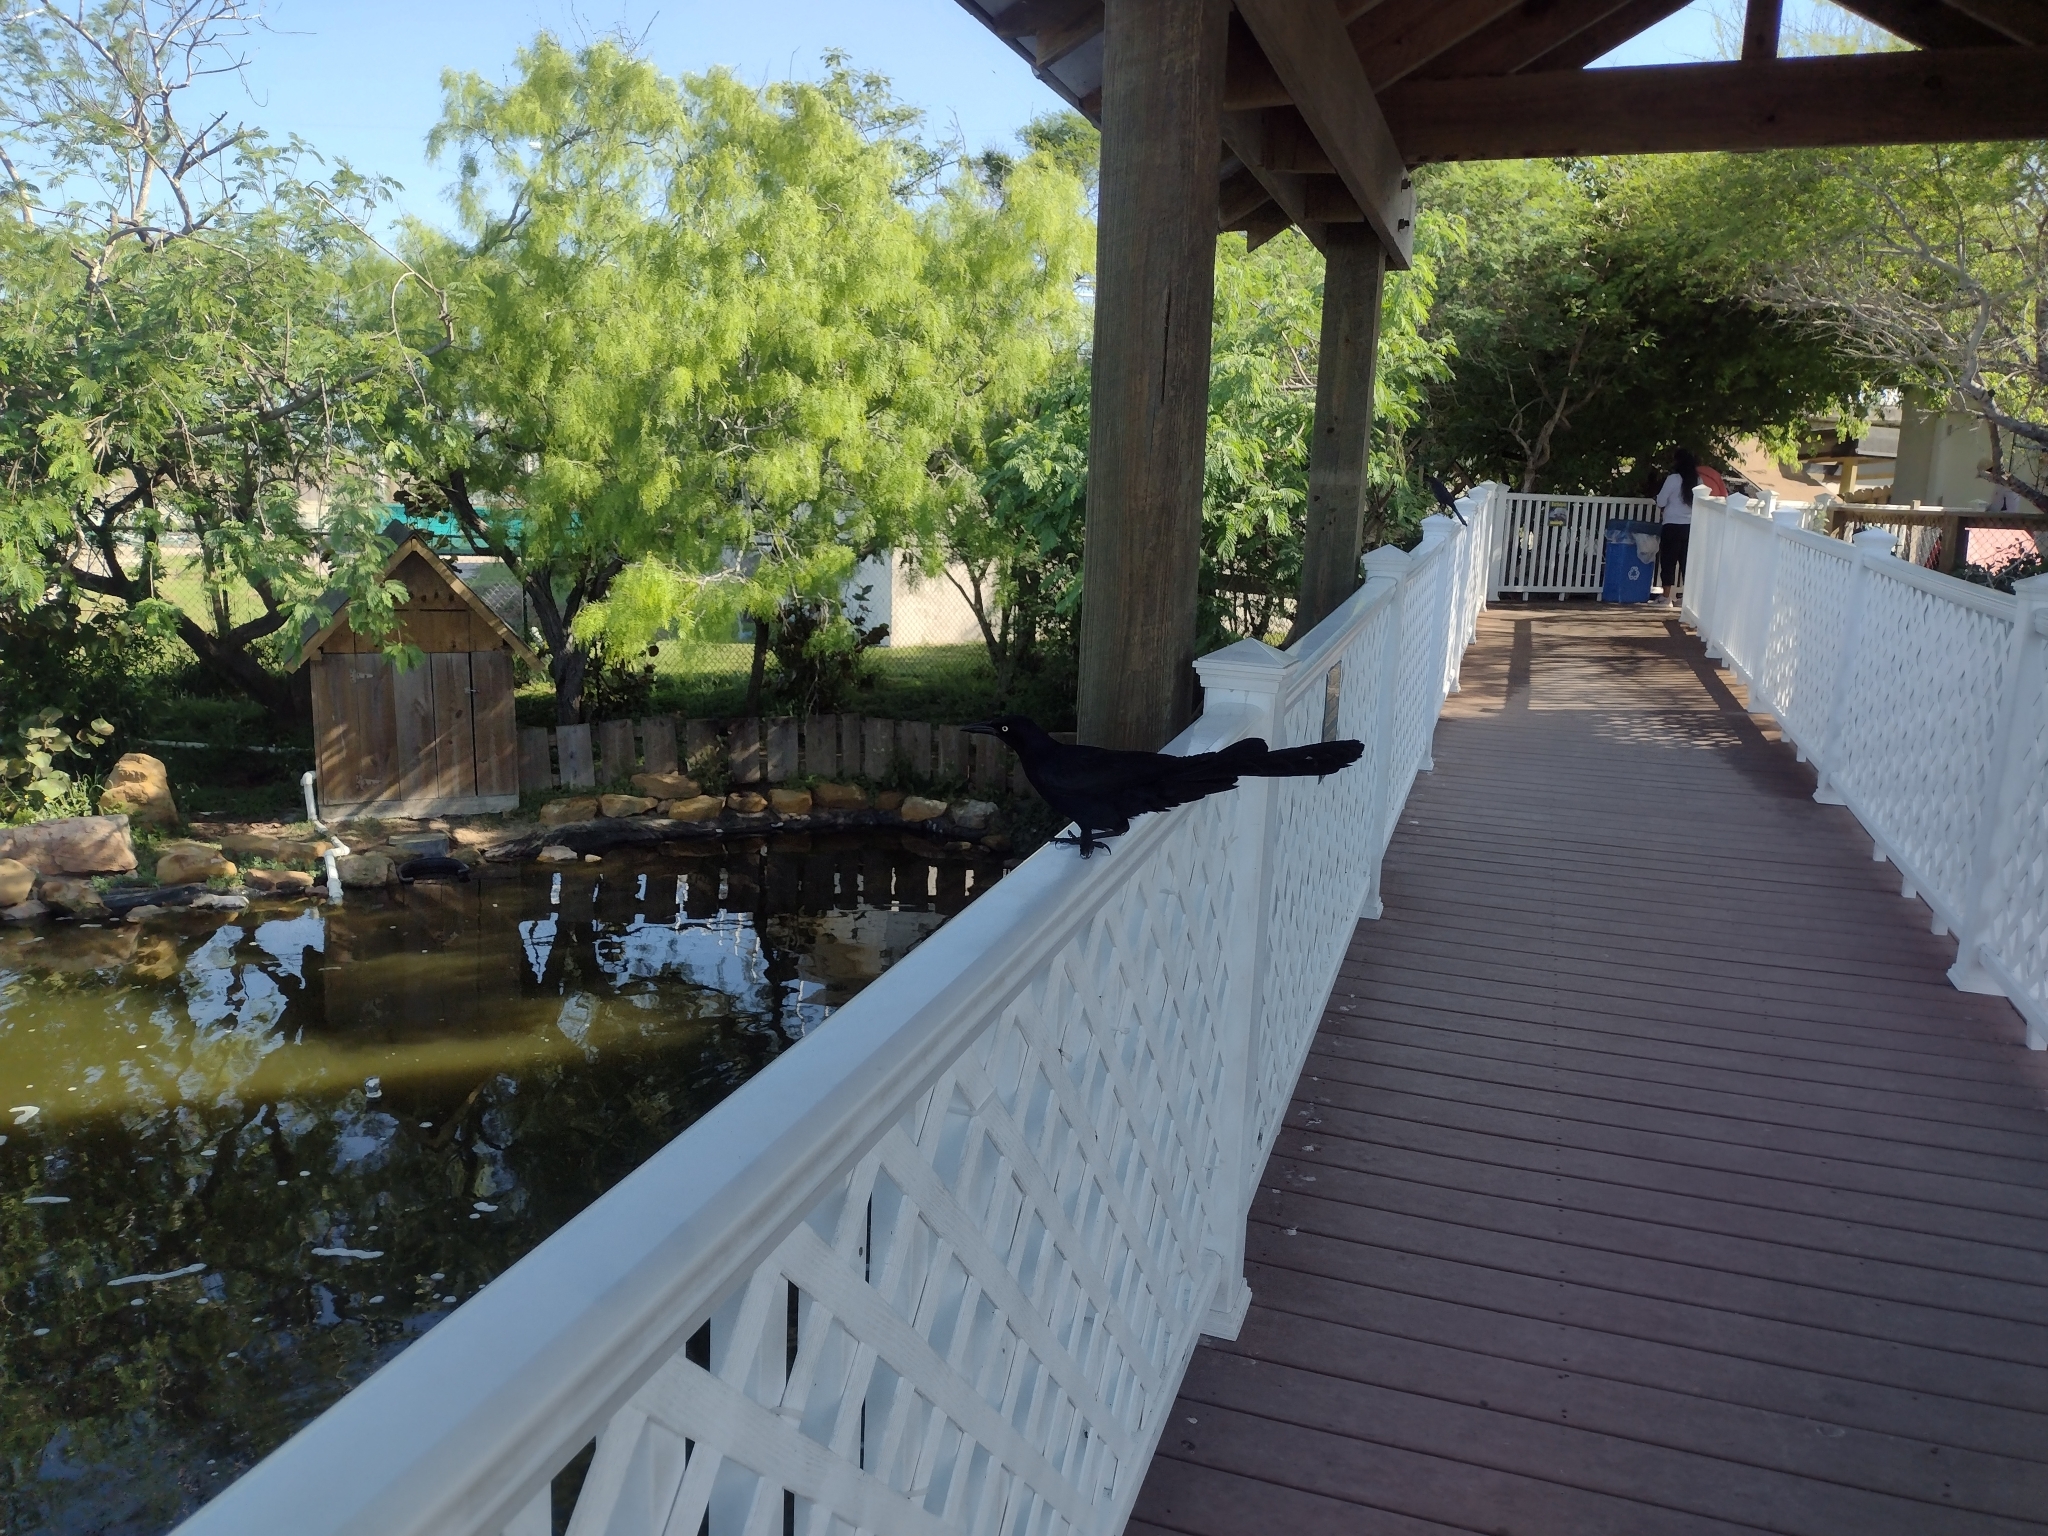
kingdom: Animalia
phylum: Chordata
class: Aves
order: Passeriformes
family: Icteridae
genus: Quiscalus
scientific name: Quiscalus mexicanus
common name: Great-tailed grackle
